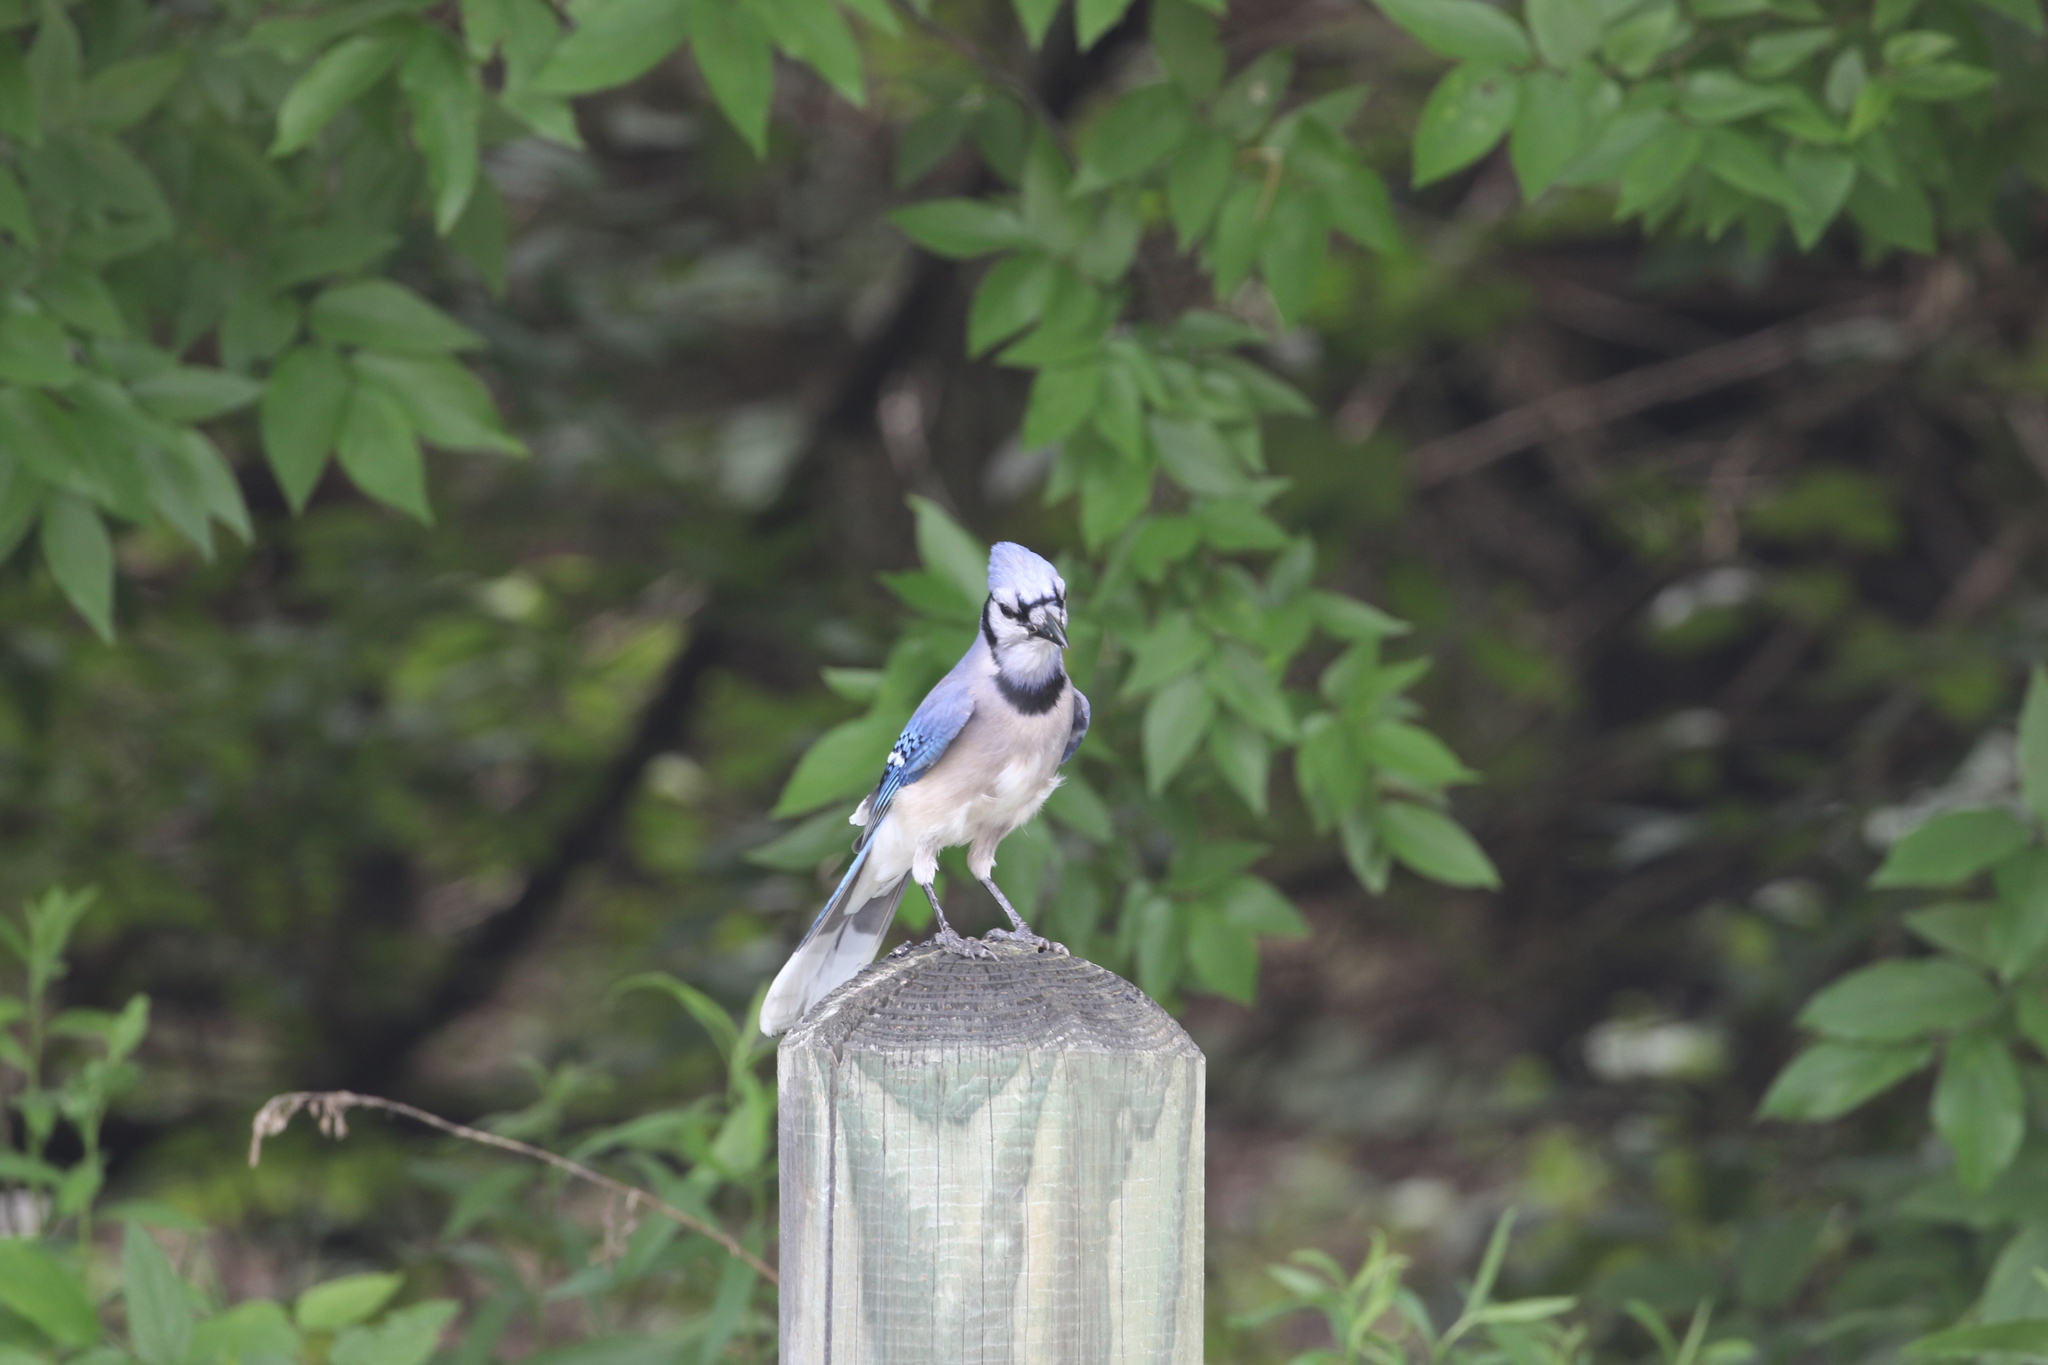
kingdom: Animalia
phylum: Chordata
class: Aves
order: Passeriformes
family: Corvidae
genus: Cyanocitta
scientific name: Cyanocitta cristata
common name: Blue jay
